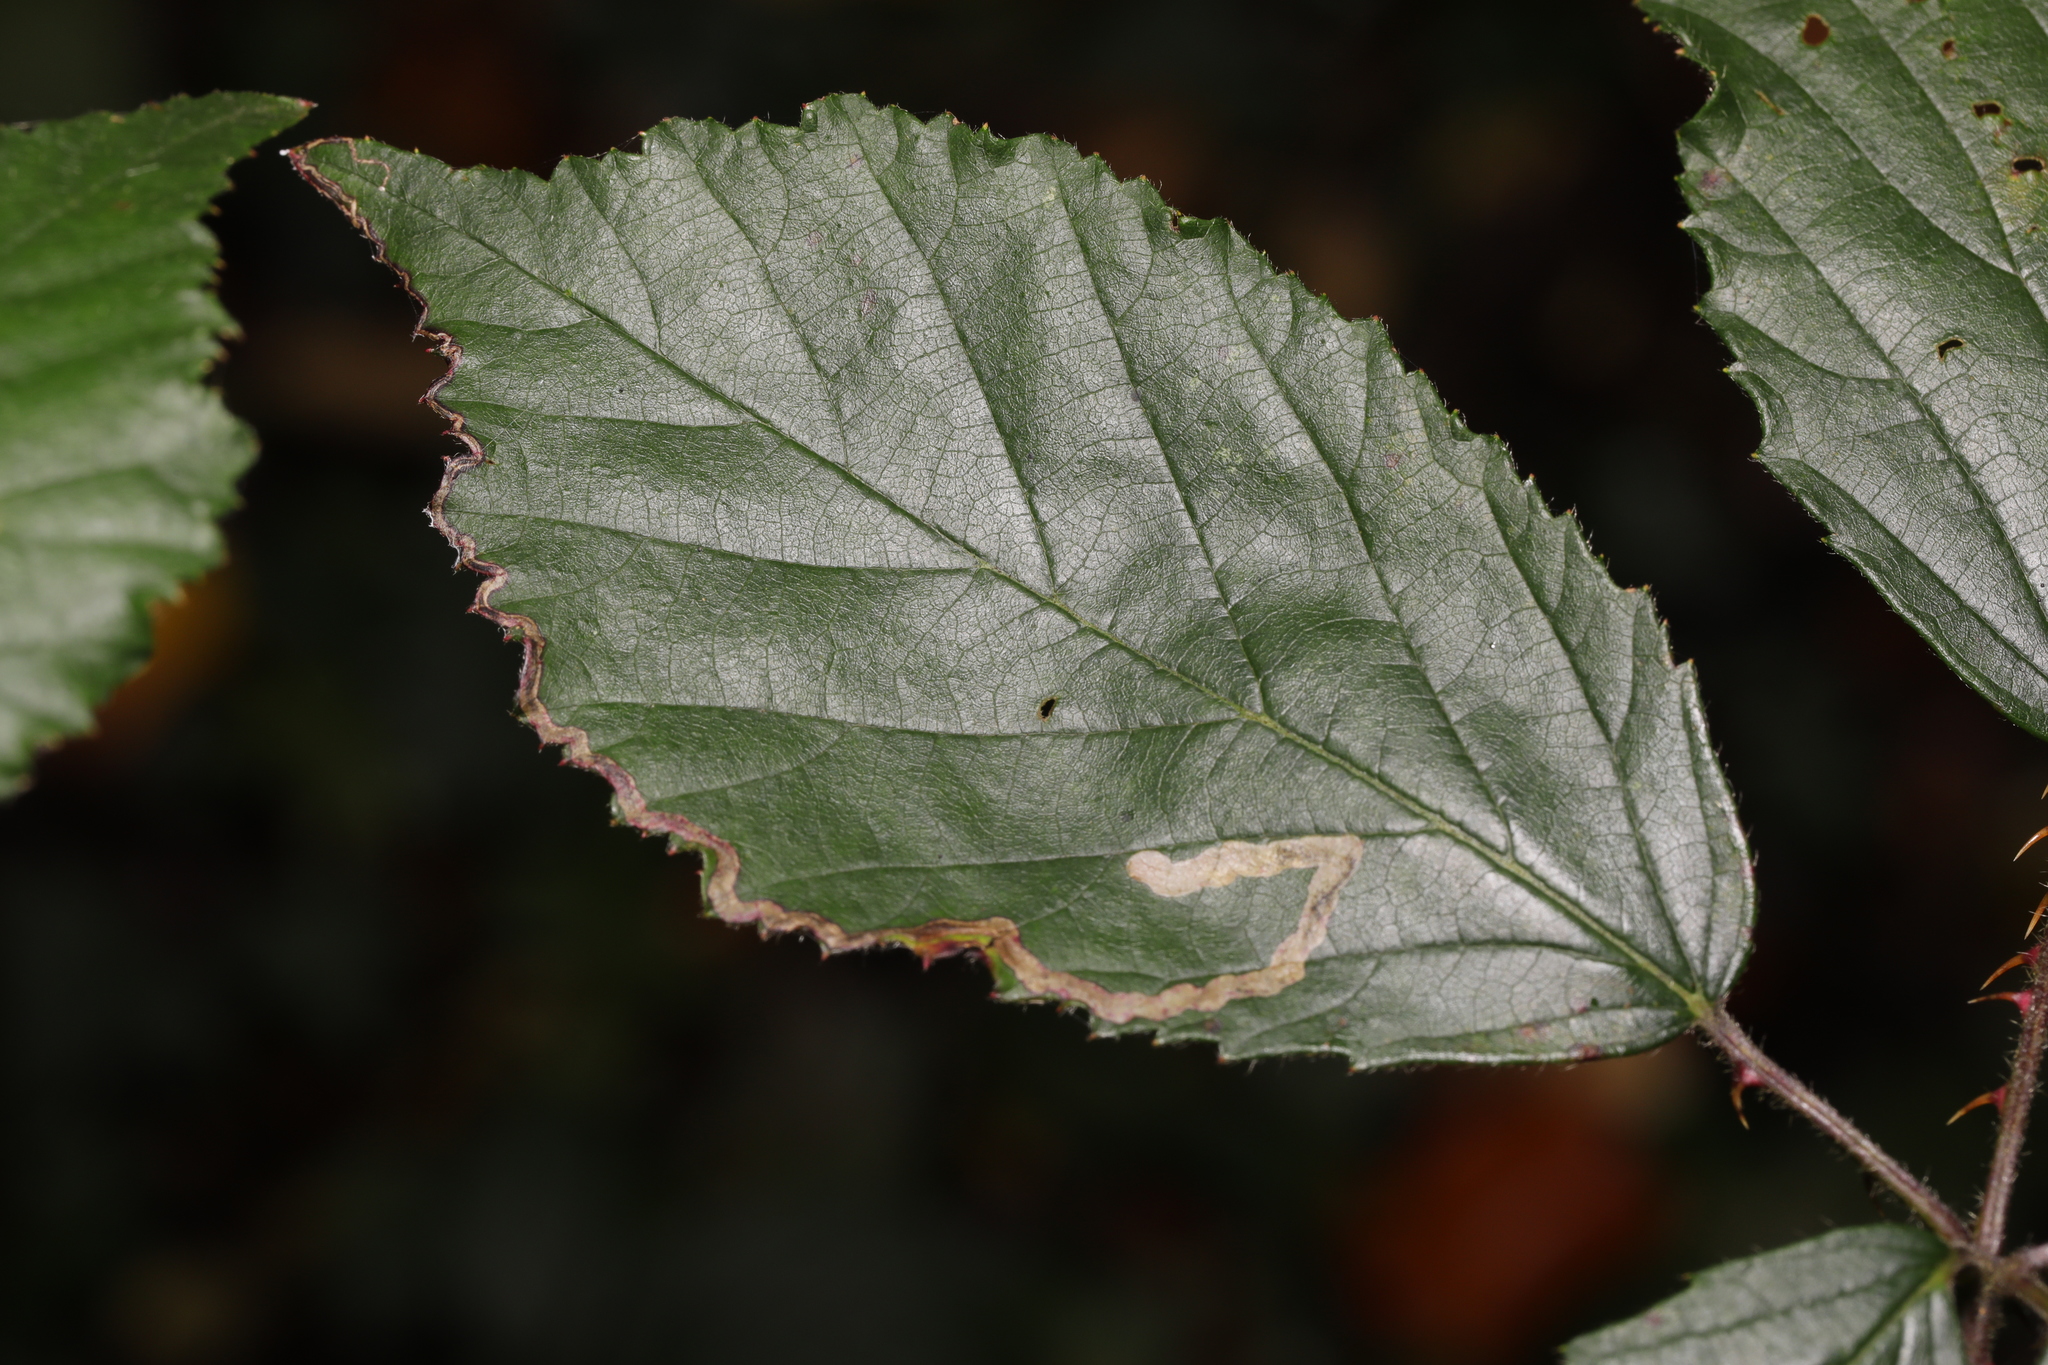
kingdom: Animalia
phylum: Arthropoda
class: Insecta
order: Lepidoptera
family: Nepticulidae
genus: Stigmella
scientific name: Stigmella aurella
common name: Golden pigmy
